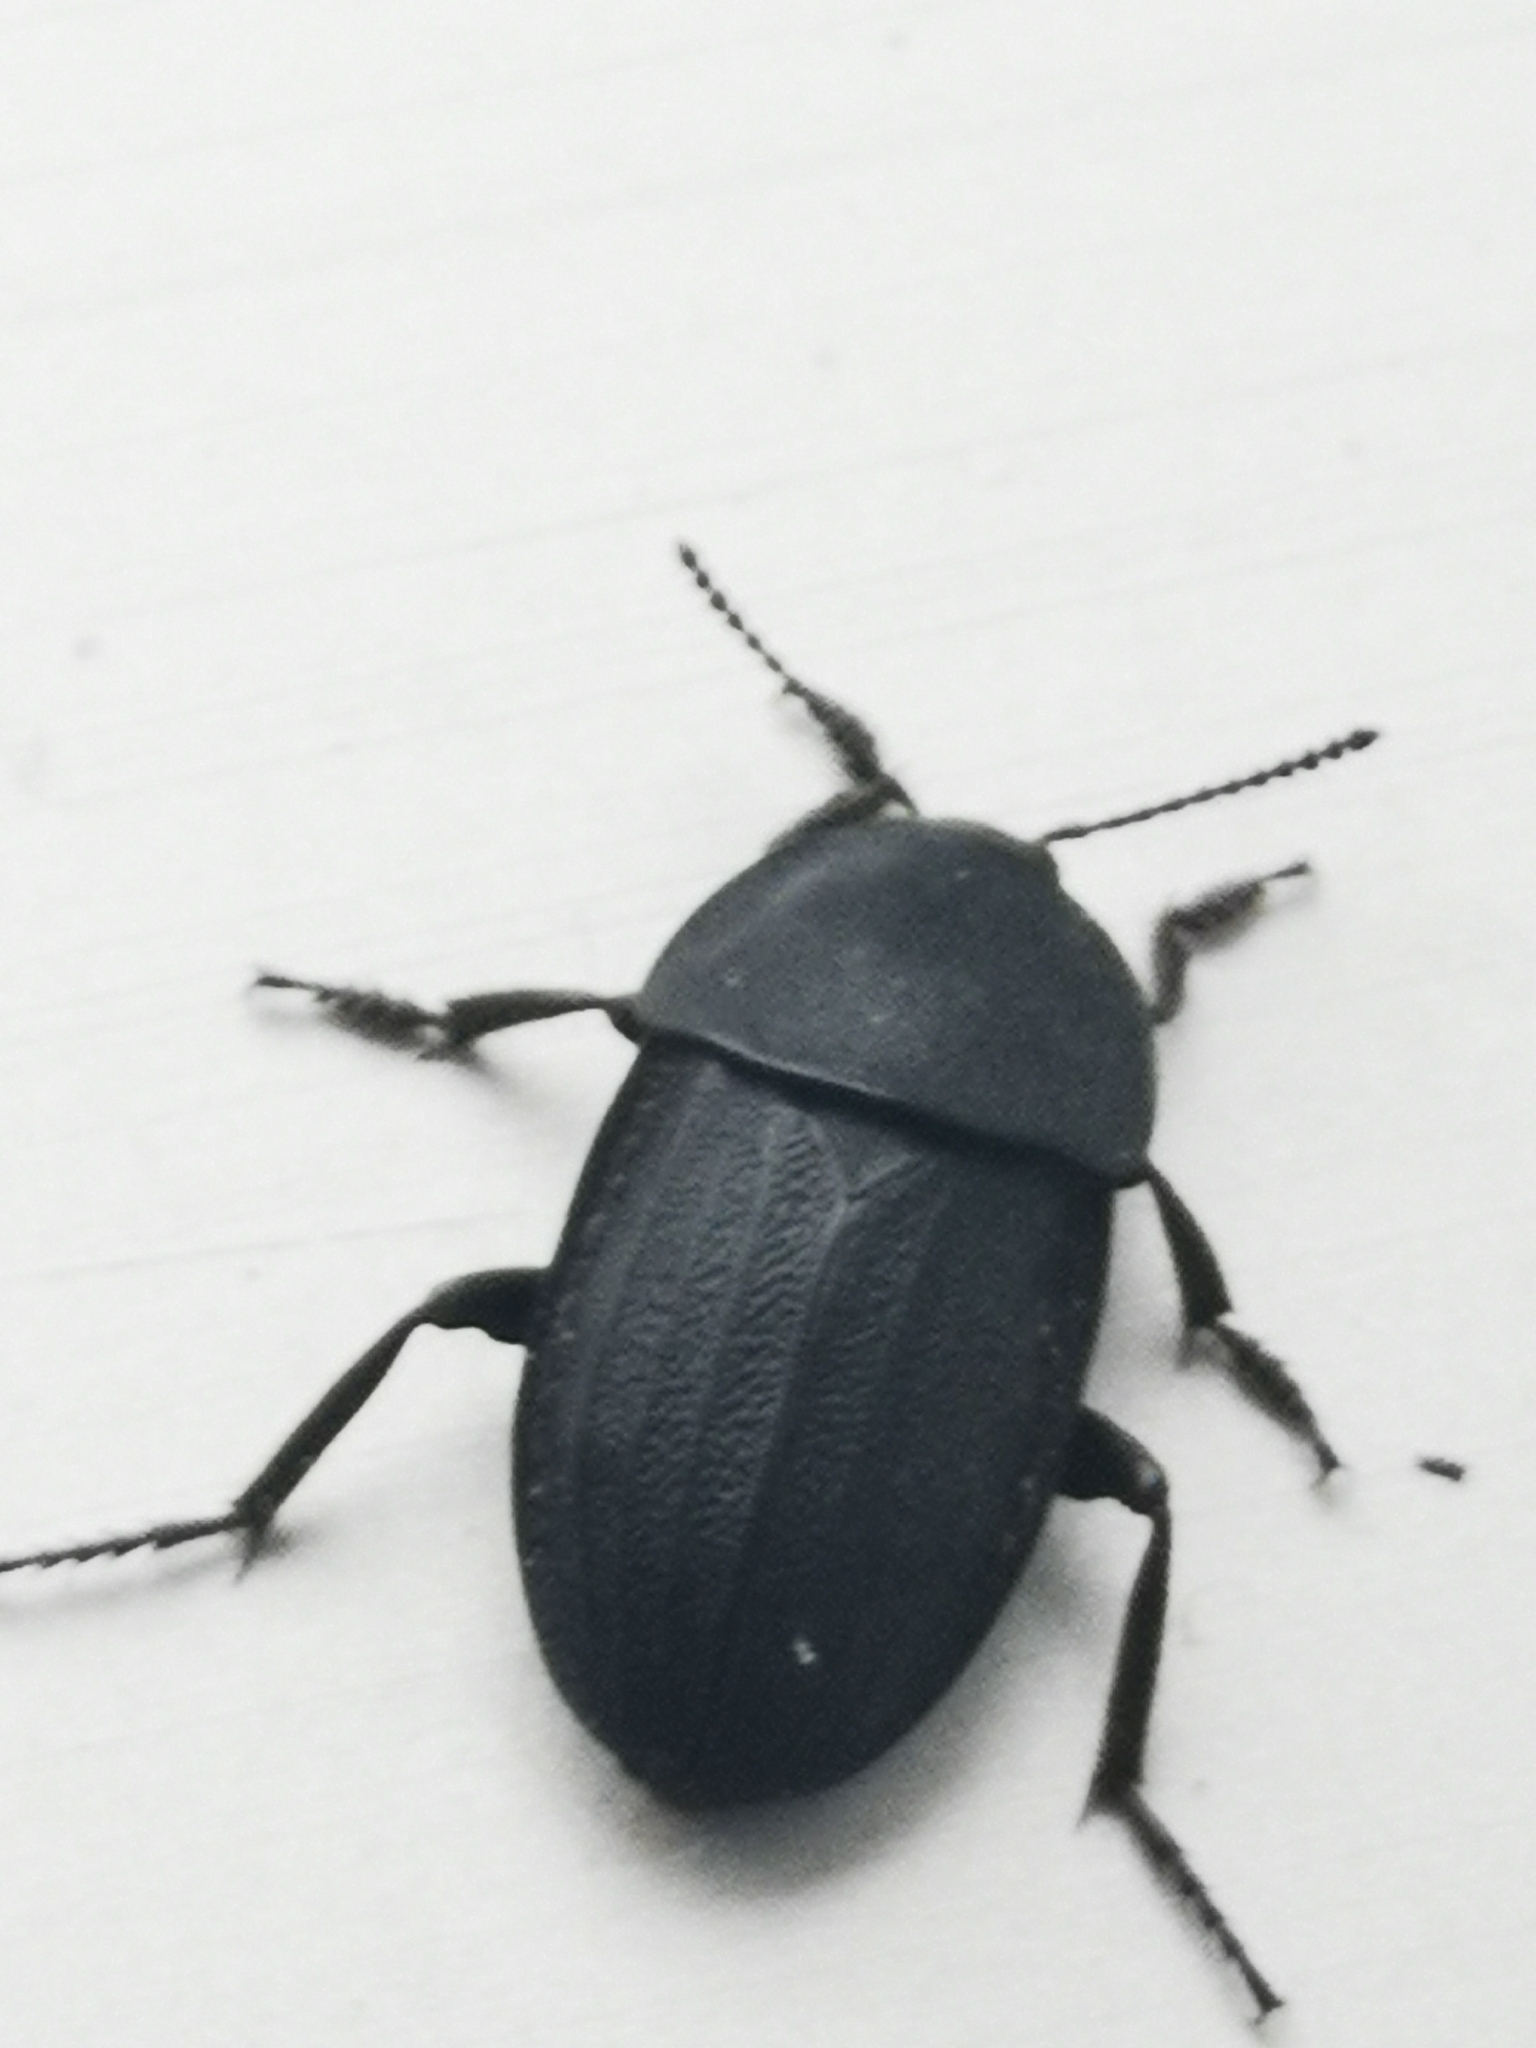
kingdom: Animalia
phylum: Arthropoda
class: Insecta
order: Coleoptera
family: Staphylinidae
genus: Silpha
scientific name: Silpha obscura
